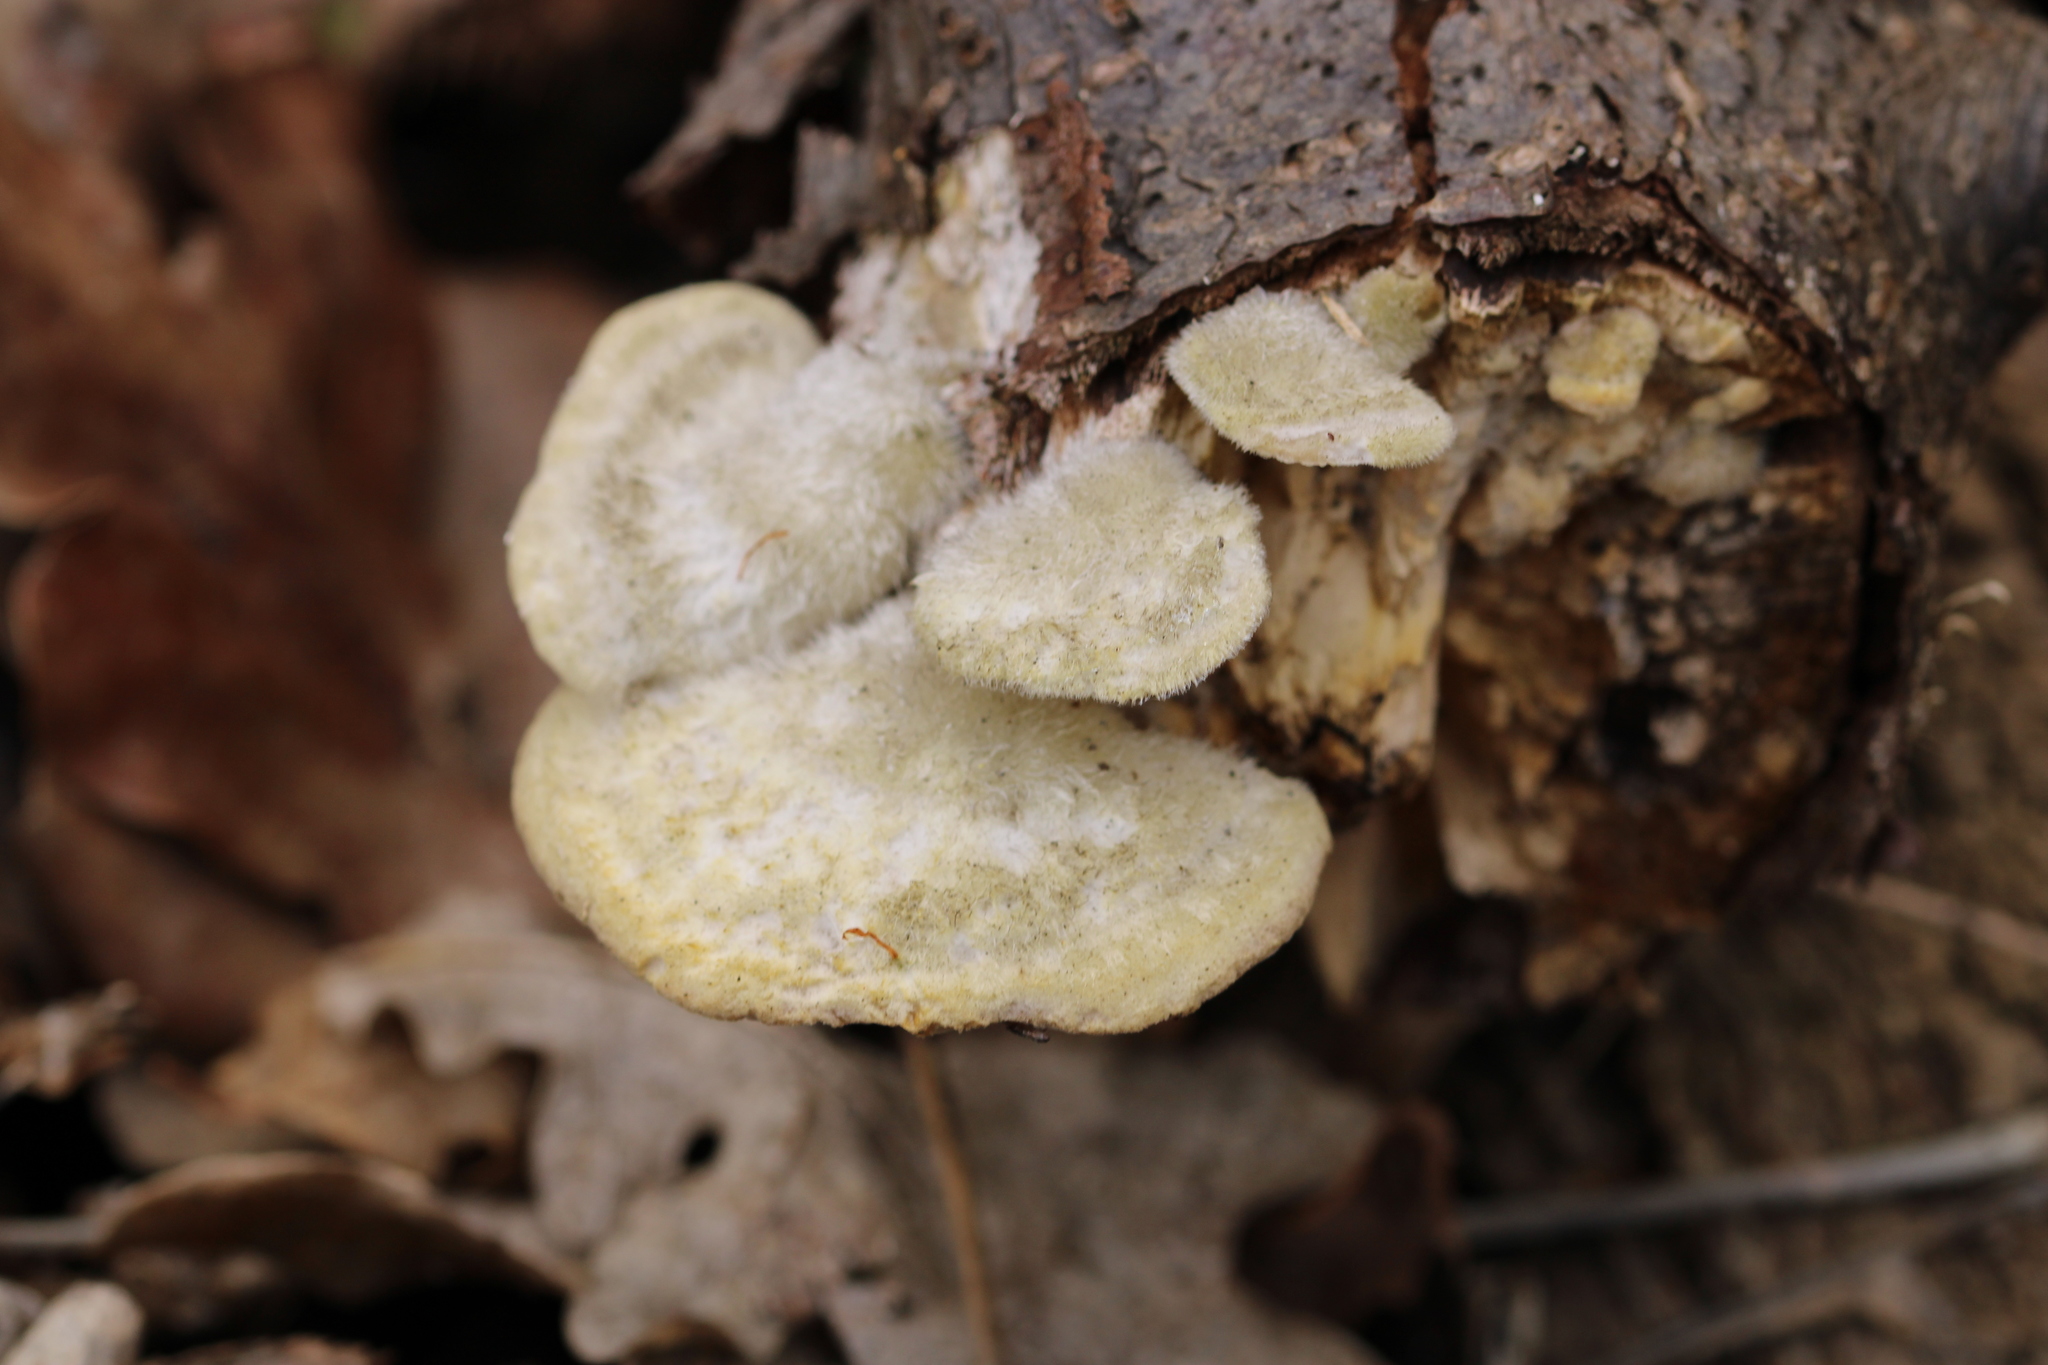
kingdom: Fungi
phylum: Basidiomycota
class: Agaricomycetes
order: Polyporales
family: Polyporaceae
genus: Trametes
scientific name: Trametes hirsuta
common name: Hairy bracket
